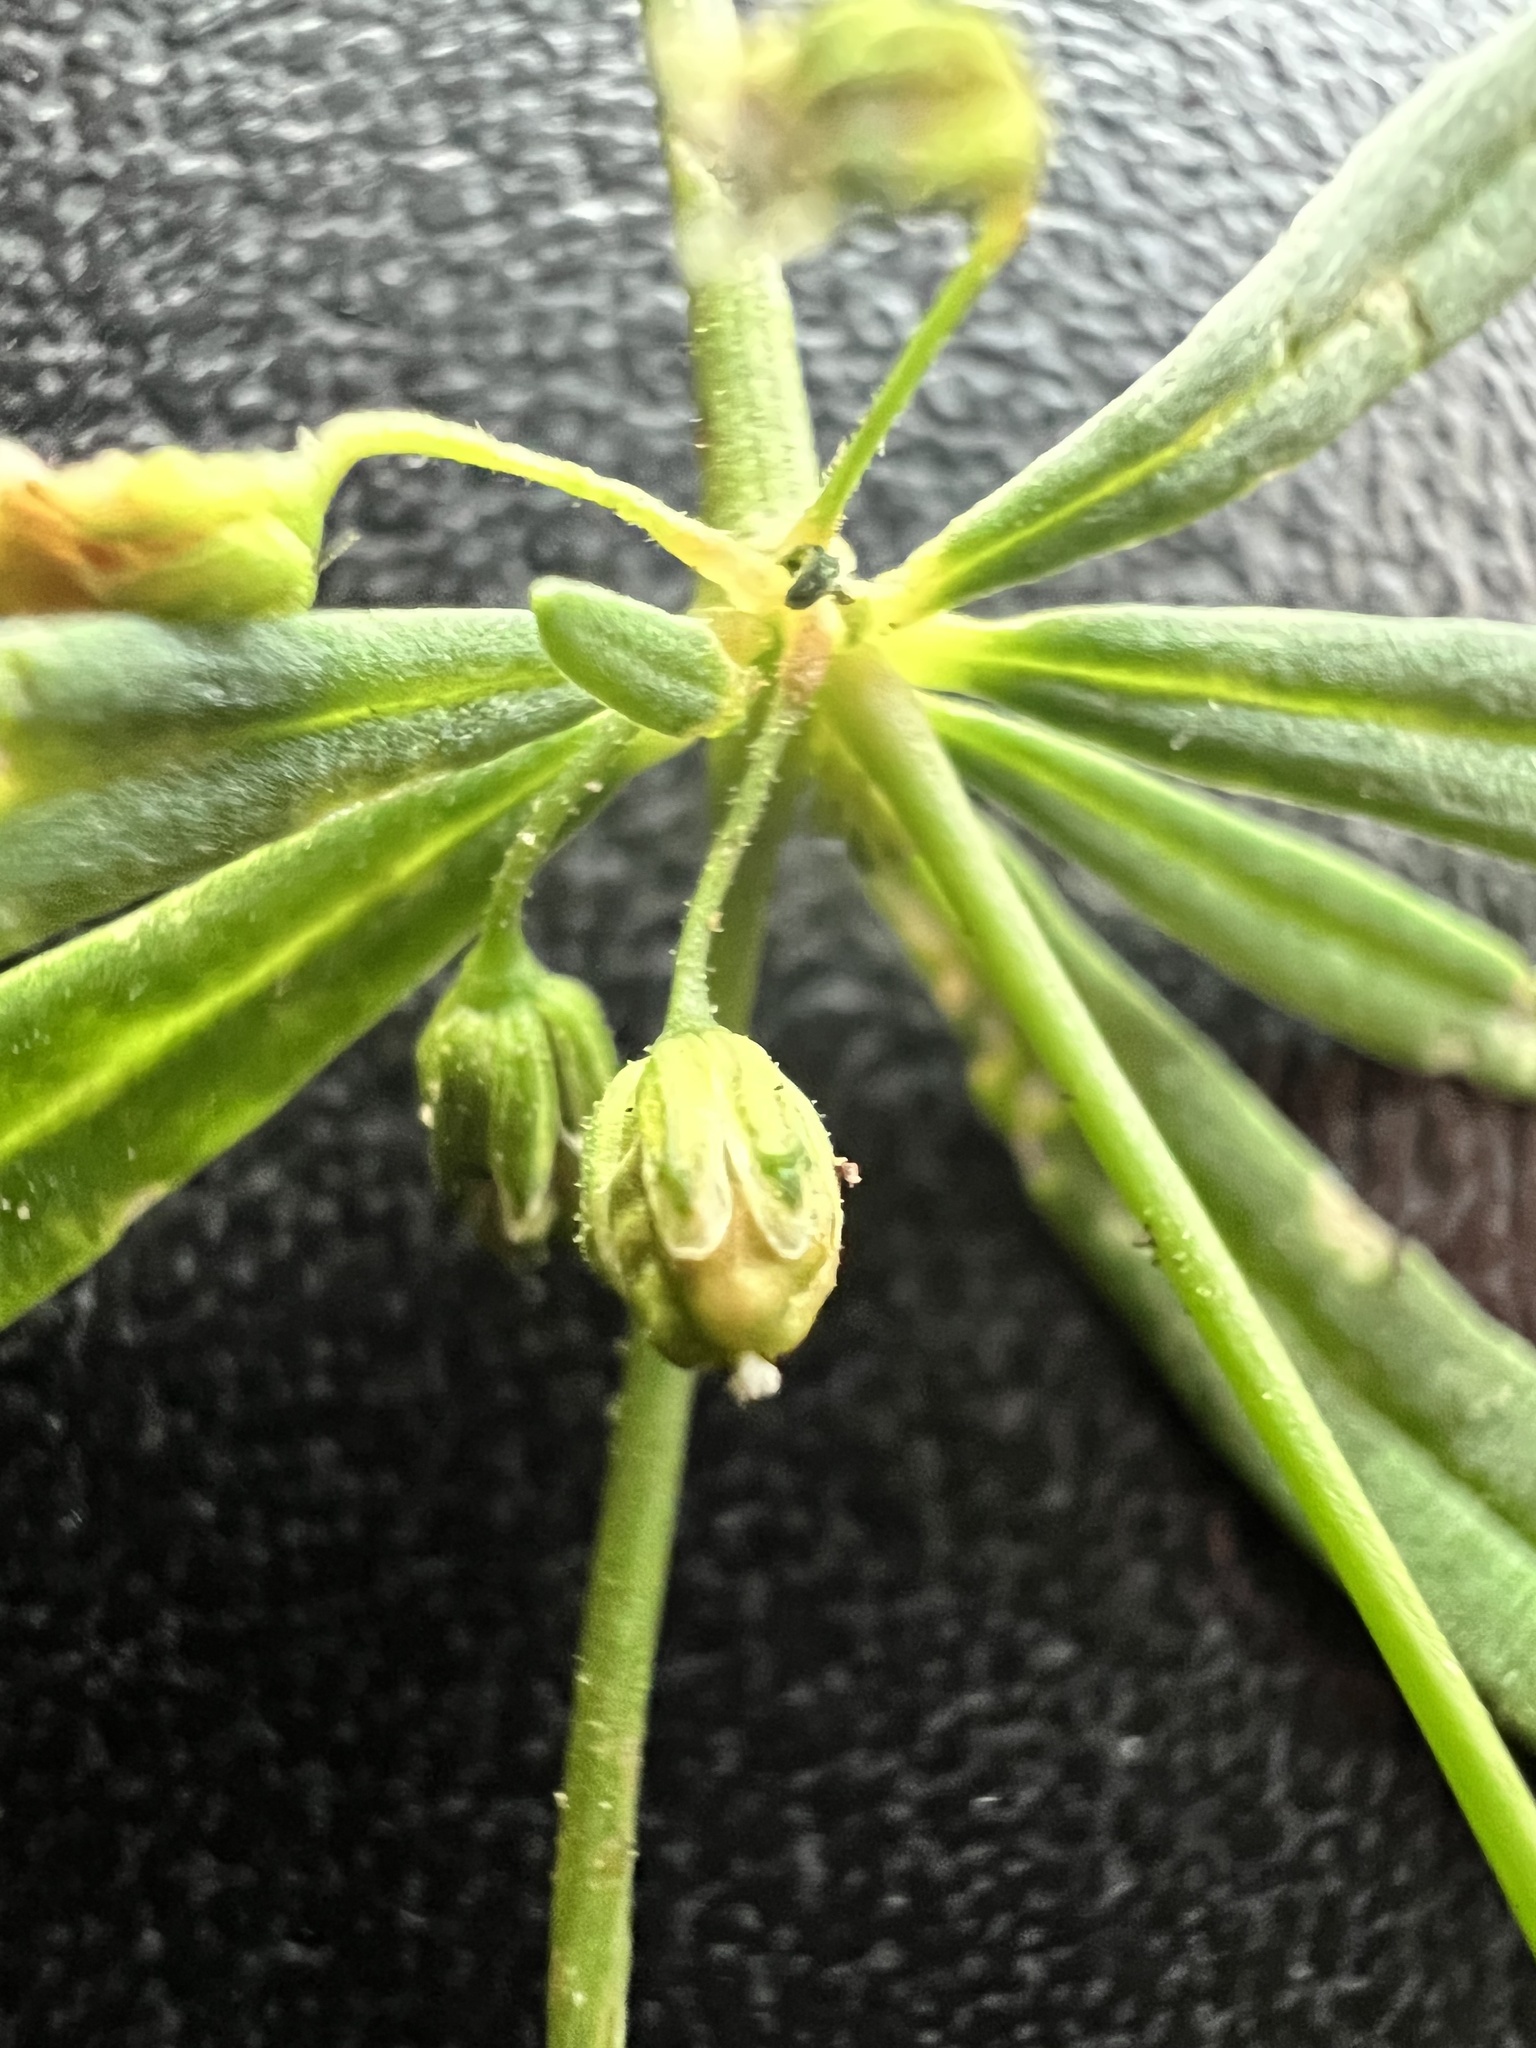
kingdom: Plantae
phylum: Tracheophyta
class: Magnoliopsida
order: Caryophyllales
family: Molluginaceae
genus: Mollugo
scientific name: Mollugo verticillata
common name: Green carpetweed
